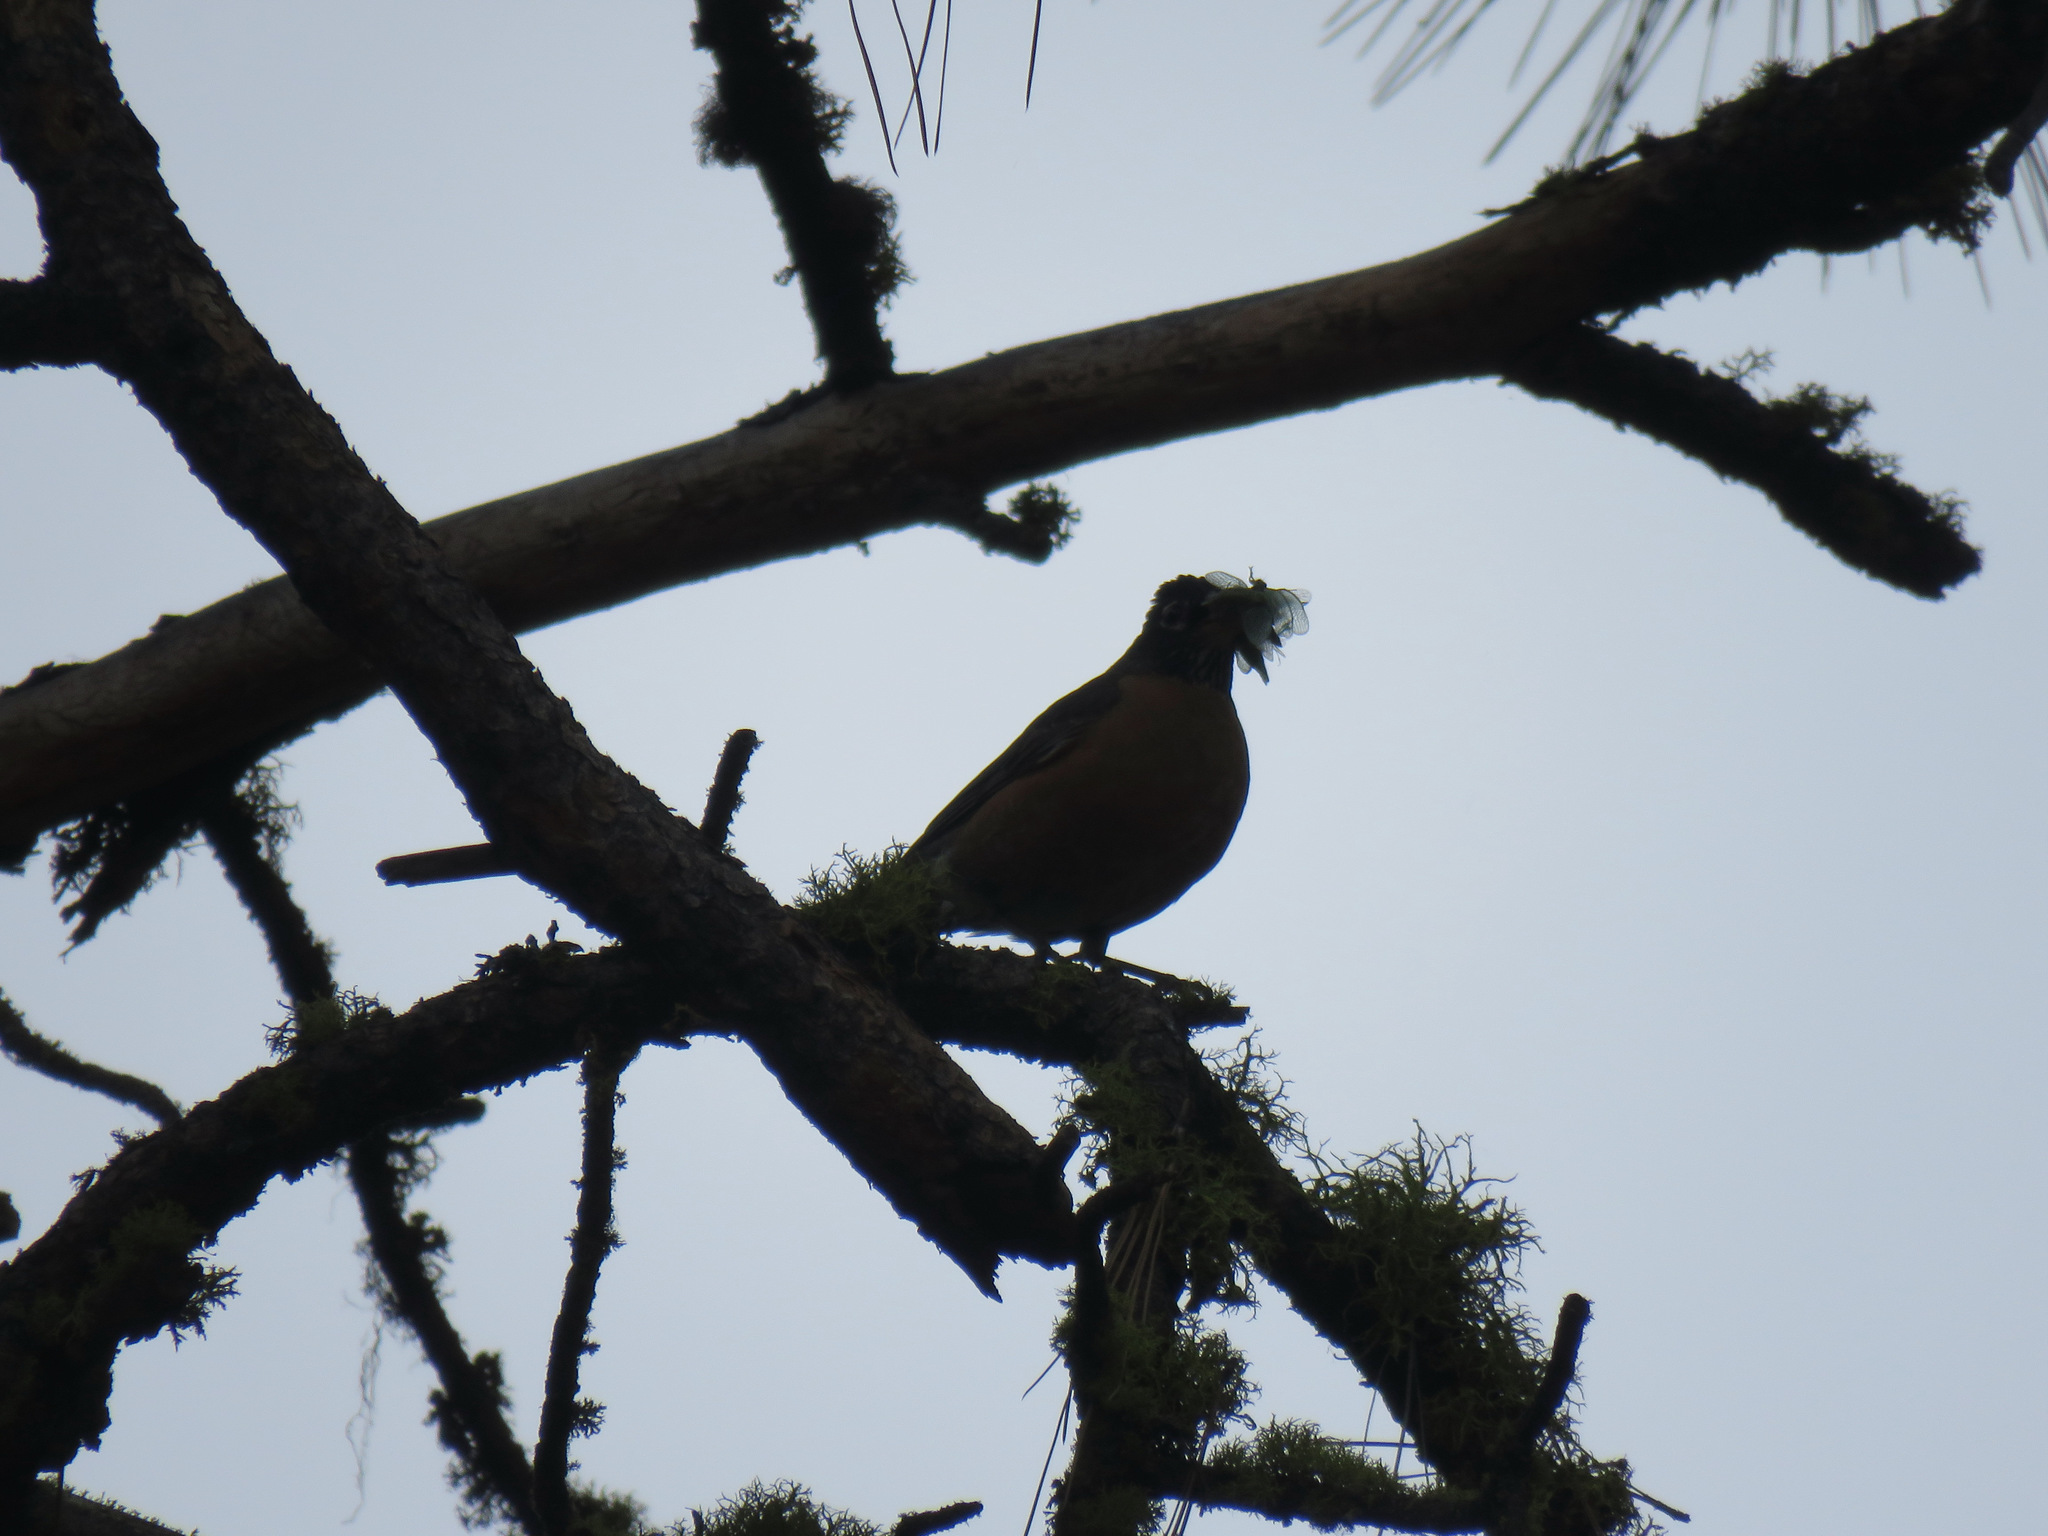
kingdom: Animalia
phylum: Chordata
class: Aves
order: Passeriformes
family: Turdidae
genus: Turdus
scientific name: Turdus migratorius
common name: American robin
